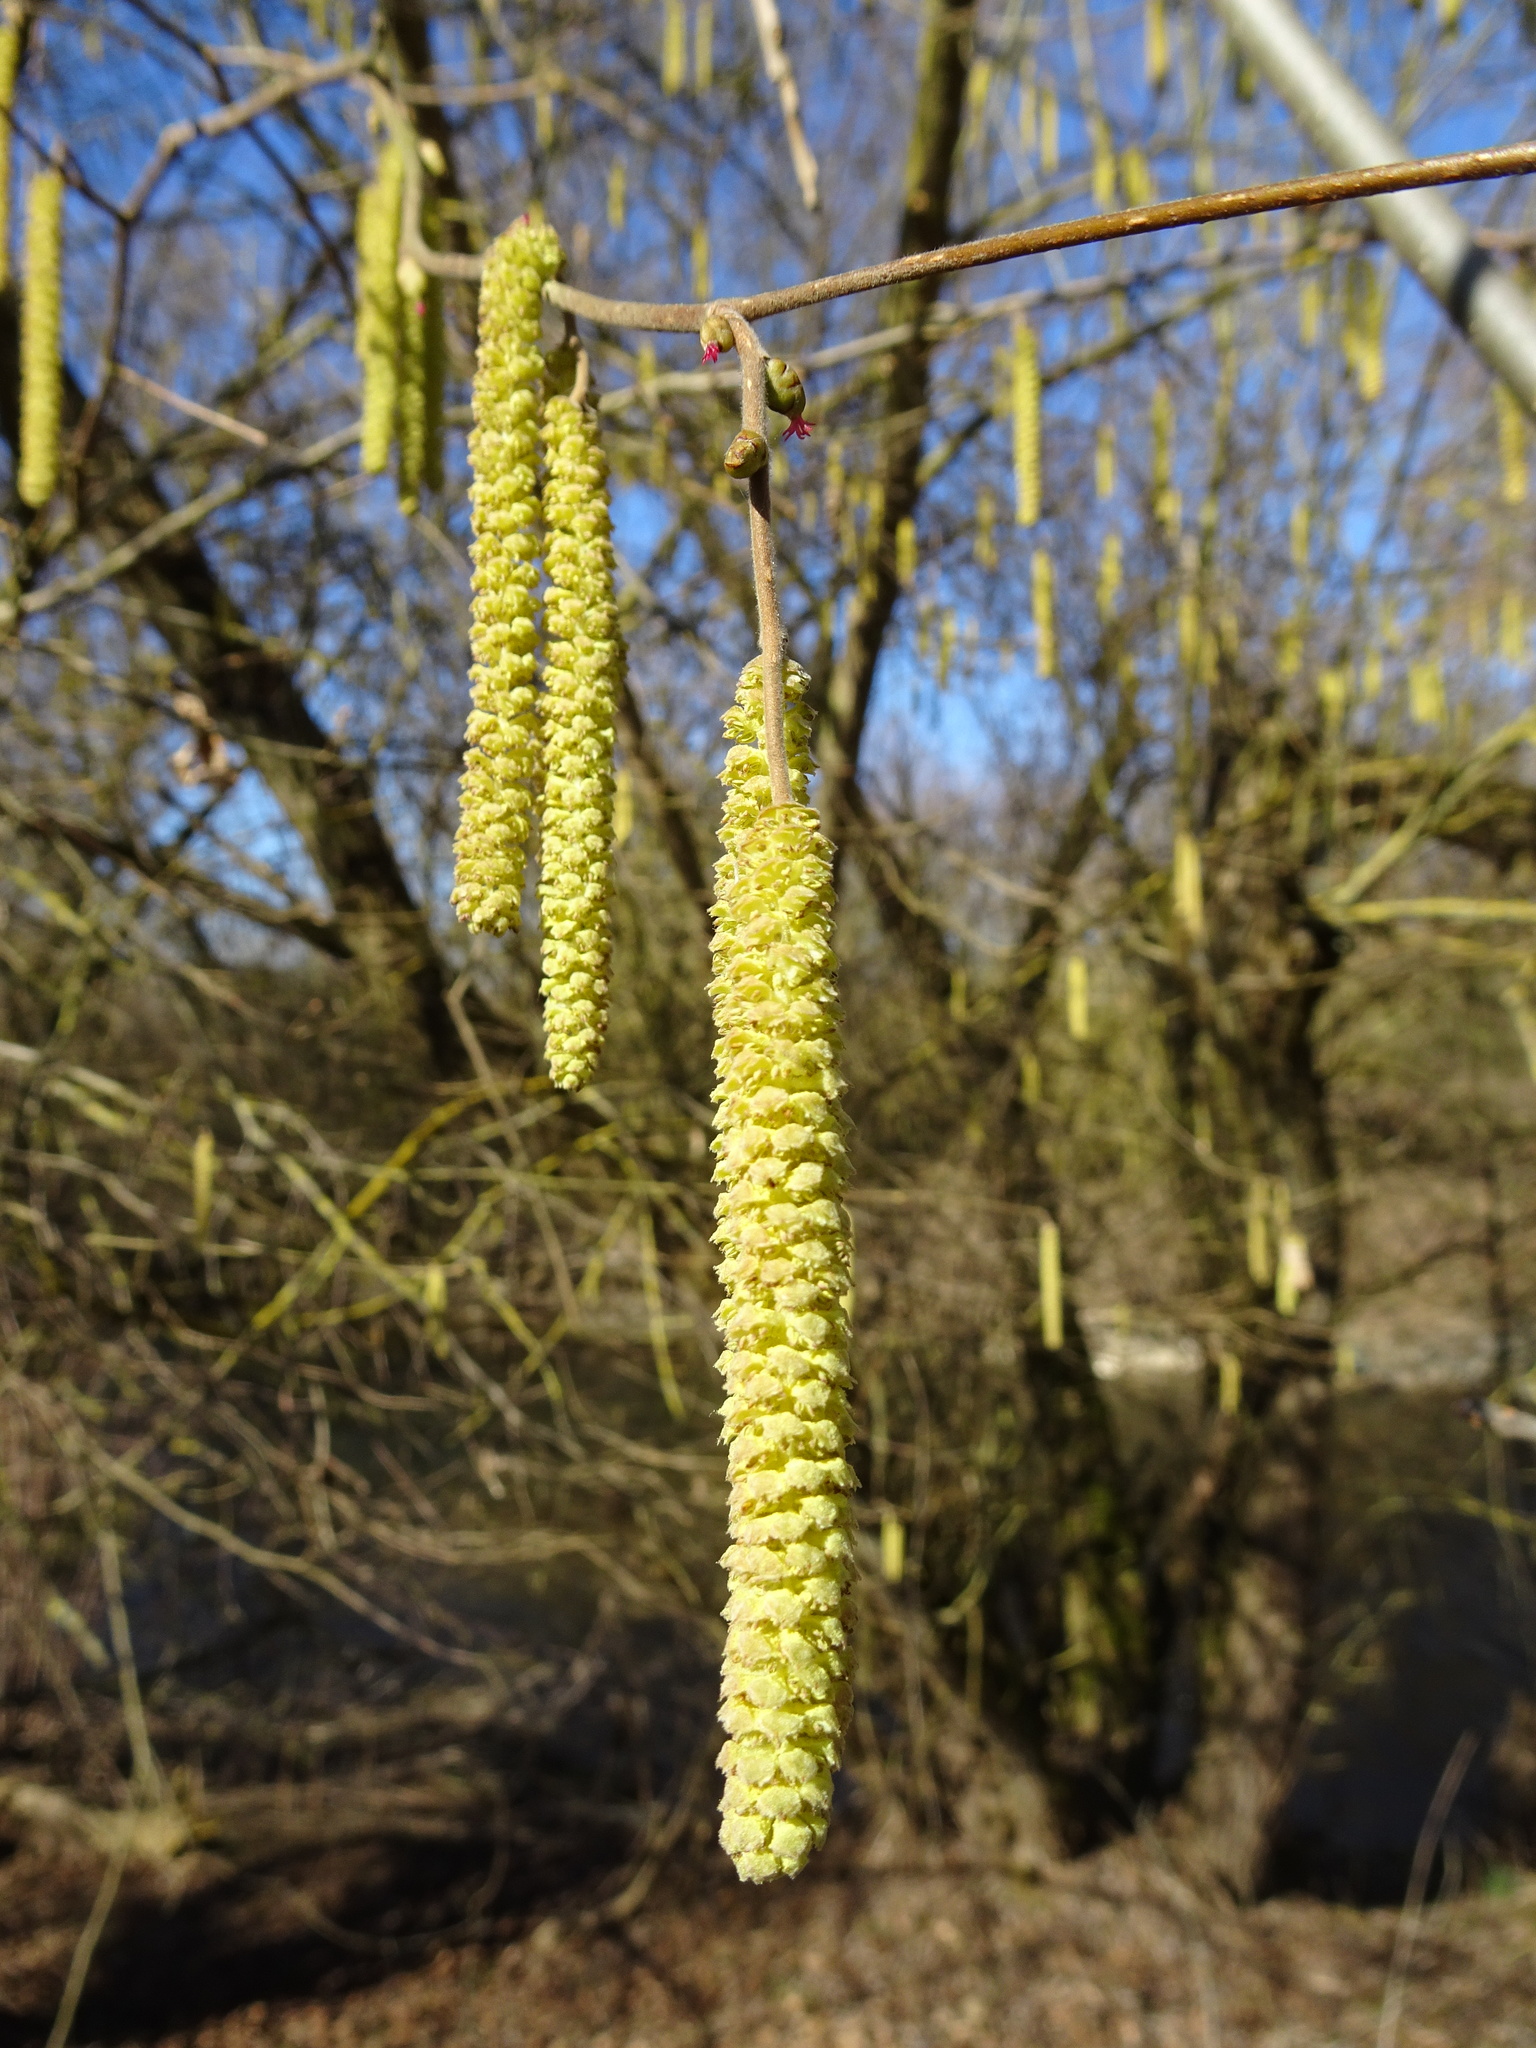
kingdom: Plantae
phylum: Tracheophyta
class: Magnoliopsida
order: Fagales
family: Betulaceae
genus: Corylus
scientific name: Corylus avellana
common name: European hazel
